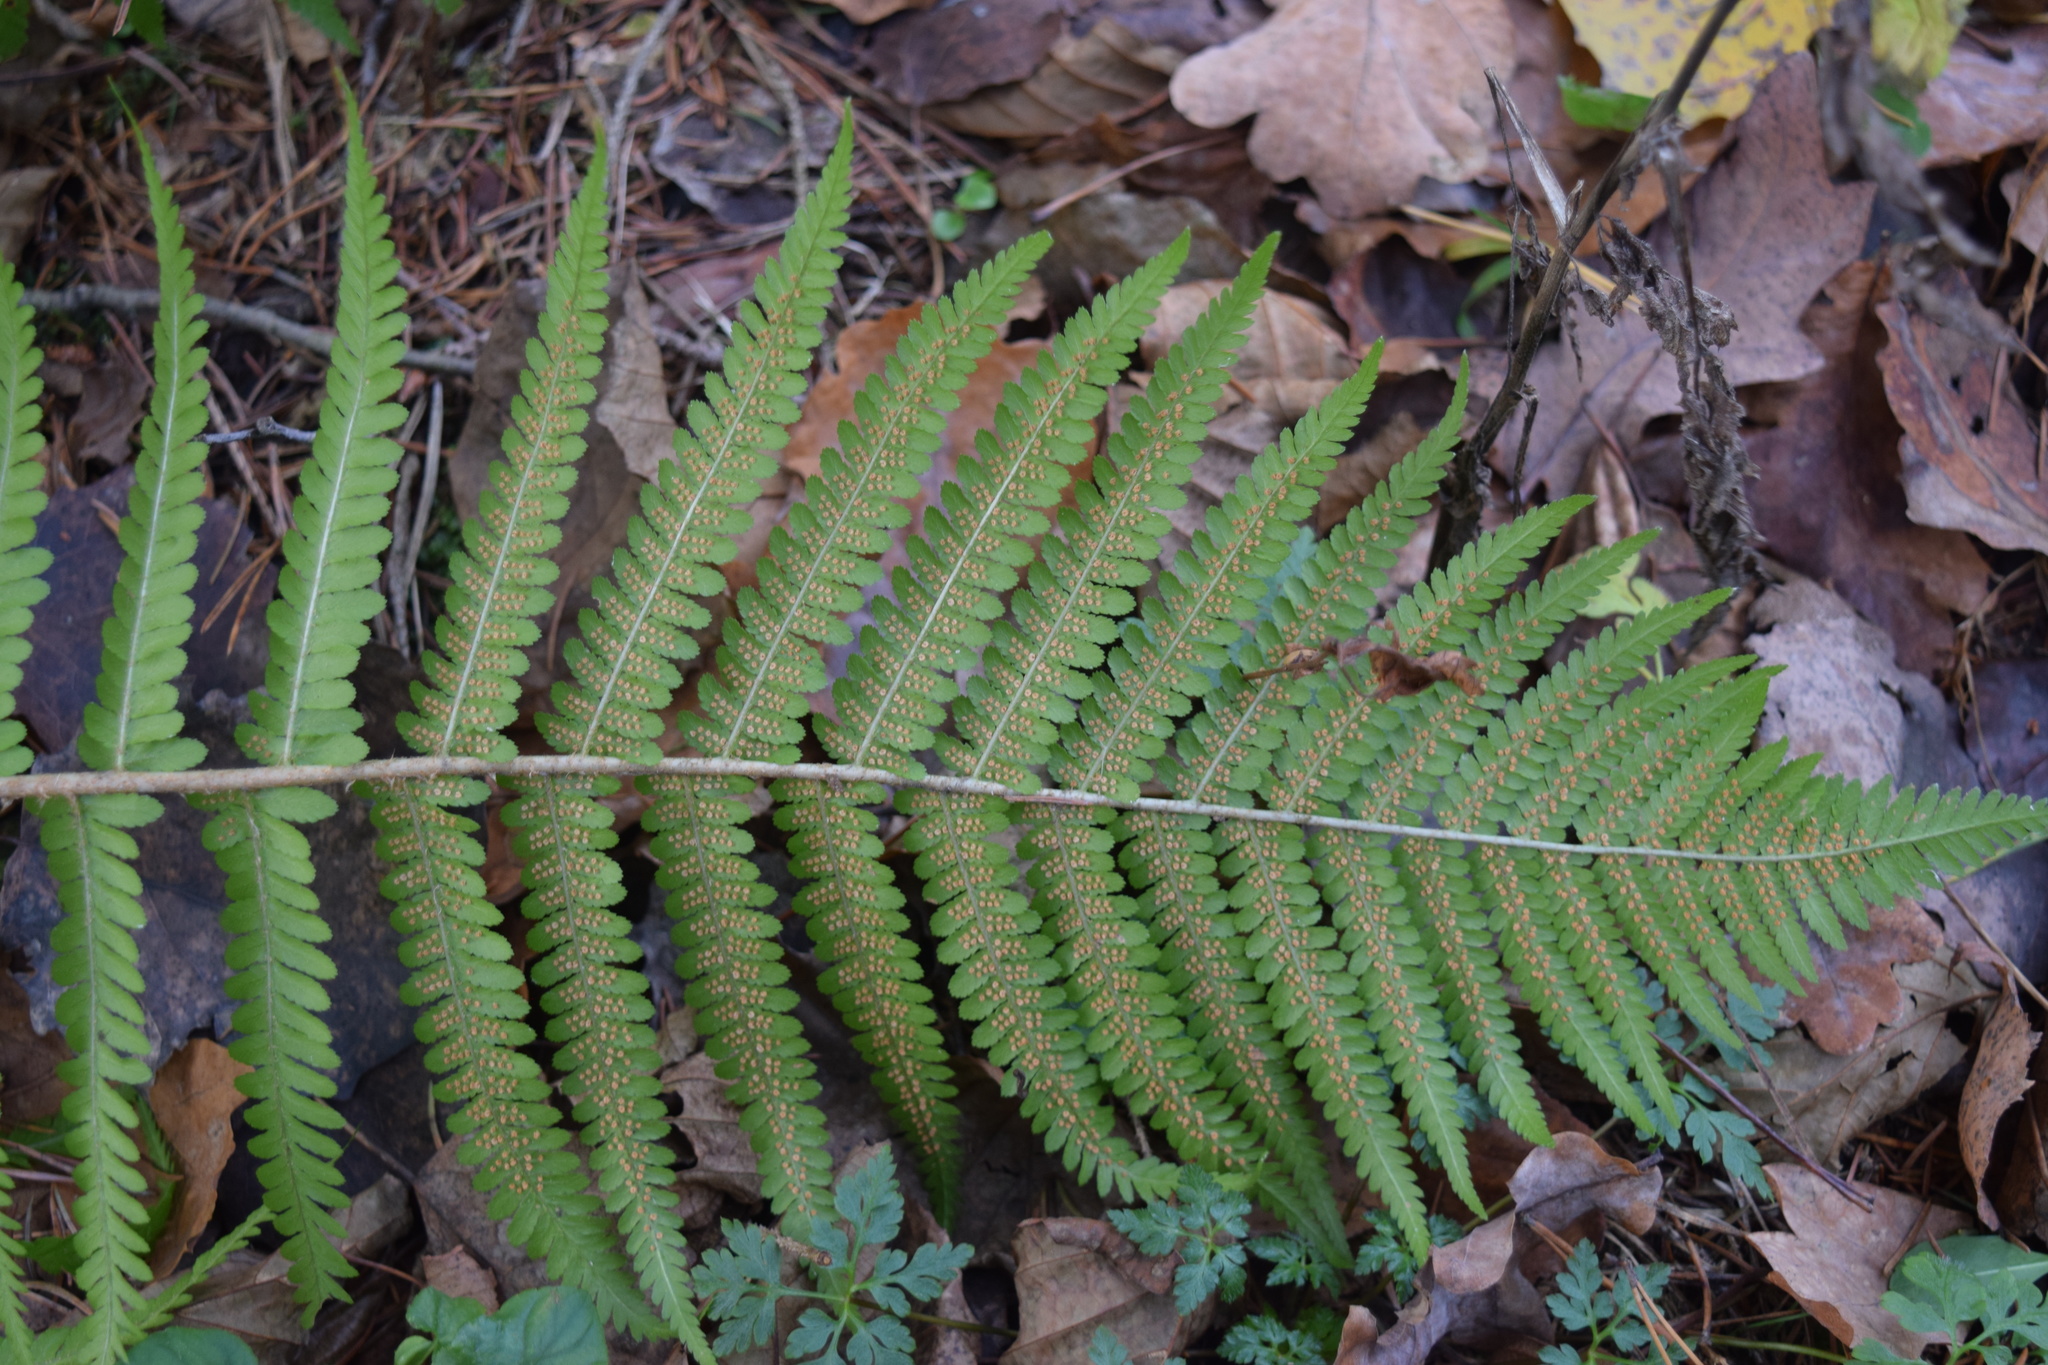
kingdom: Plantae
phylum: Tracheophyta
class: Polypodiopsida
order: Polypodiales
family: Dryopteridaceae
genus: Dryopteris
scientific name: Dryopteris filix-mas
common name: Male fern
